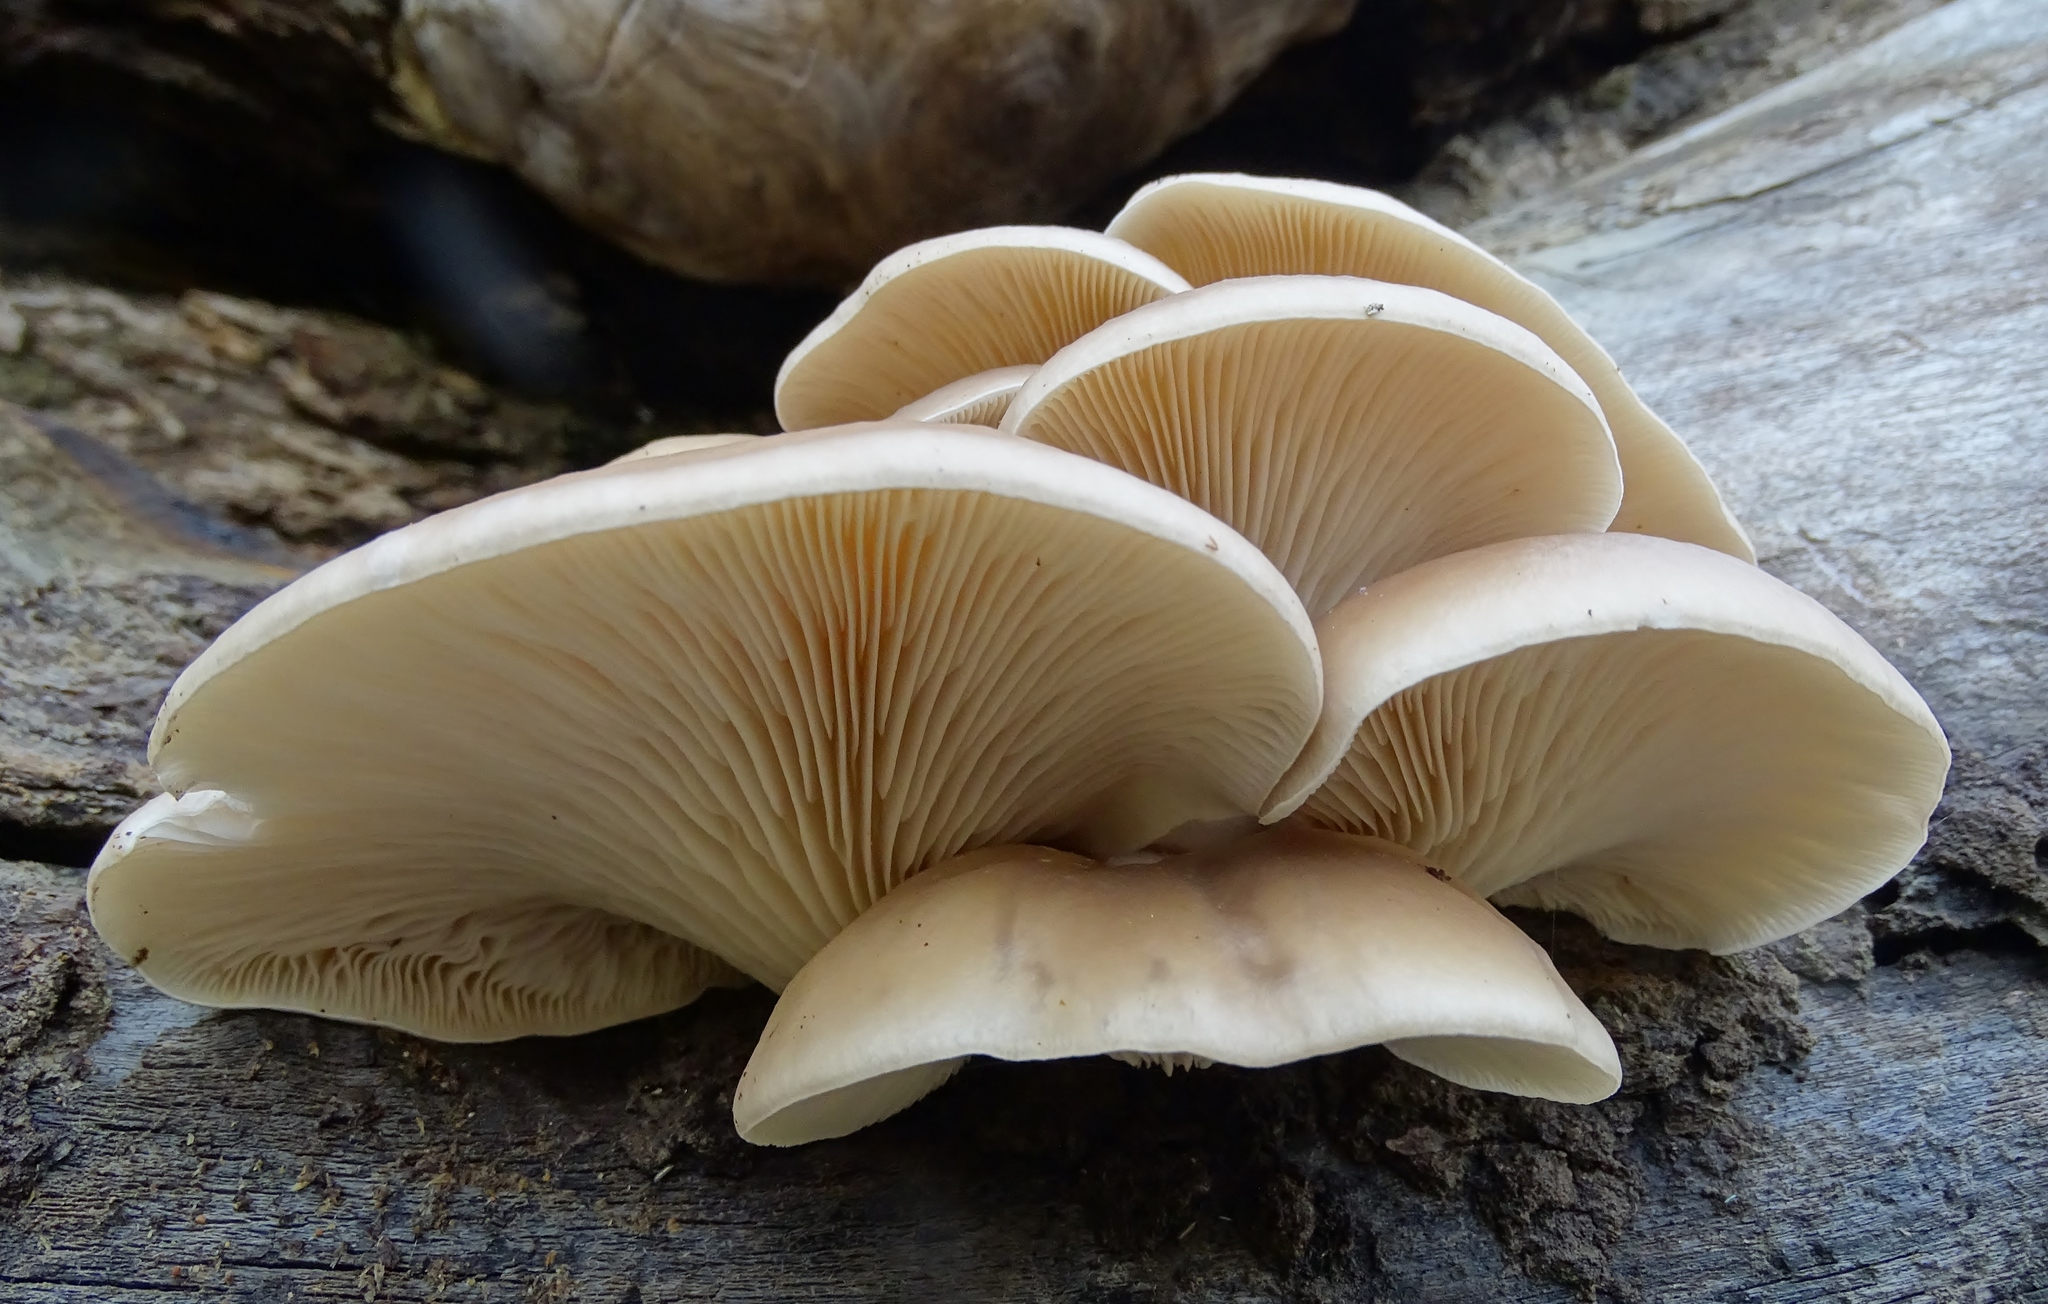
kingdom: Fungi
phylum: Basidiomycota
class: Agaricomycetes
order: Agaricales
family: Pleurotaceae
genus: Pleurotus
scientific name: Pleurotus ostreatus
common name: Oyster mushroom
